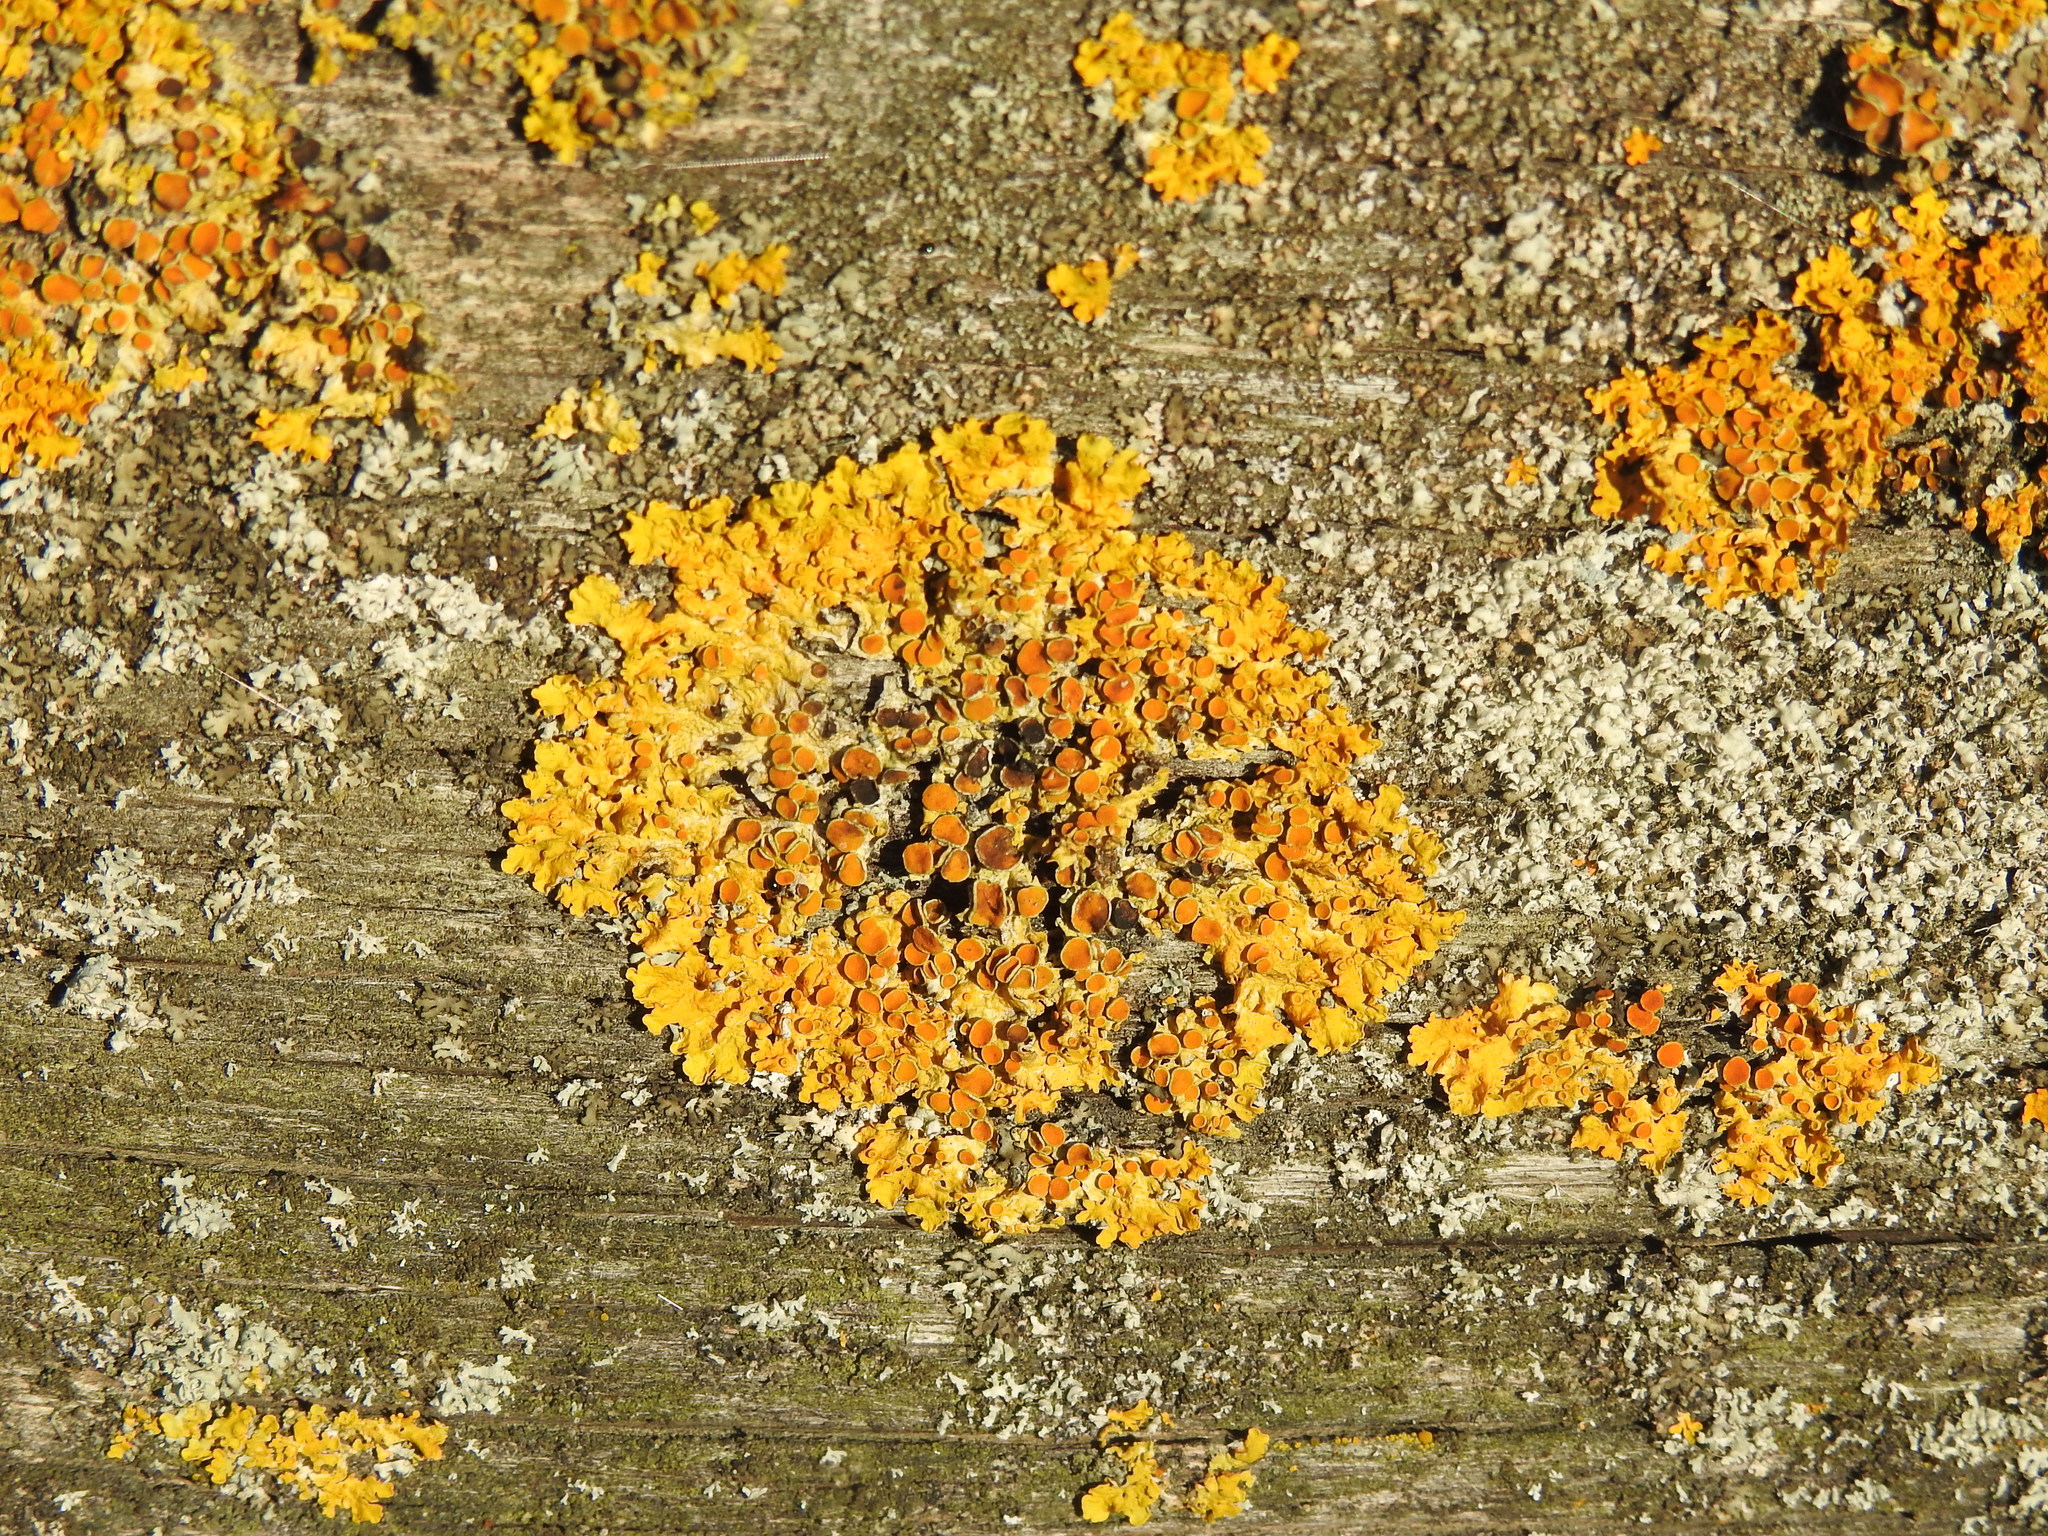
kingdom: Fungi
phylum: Ascomycota
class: Lecanoromycetes
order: Teloschistales
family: Teloschistaceae
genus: Xanthoria
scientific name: Xanthoria parietina
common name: Common orange lichen
